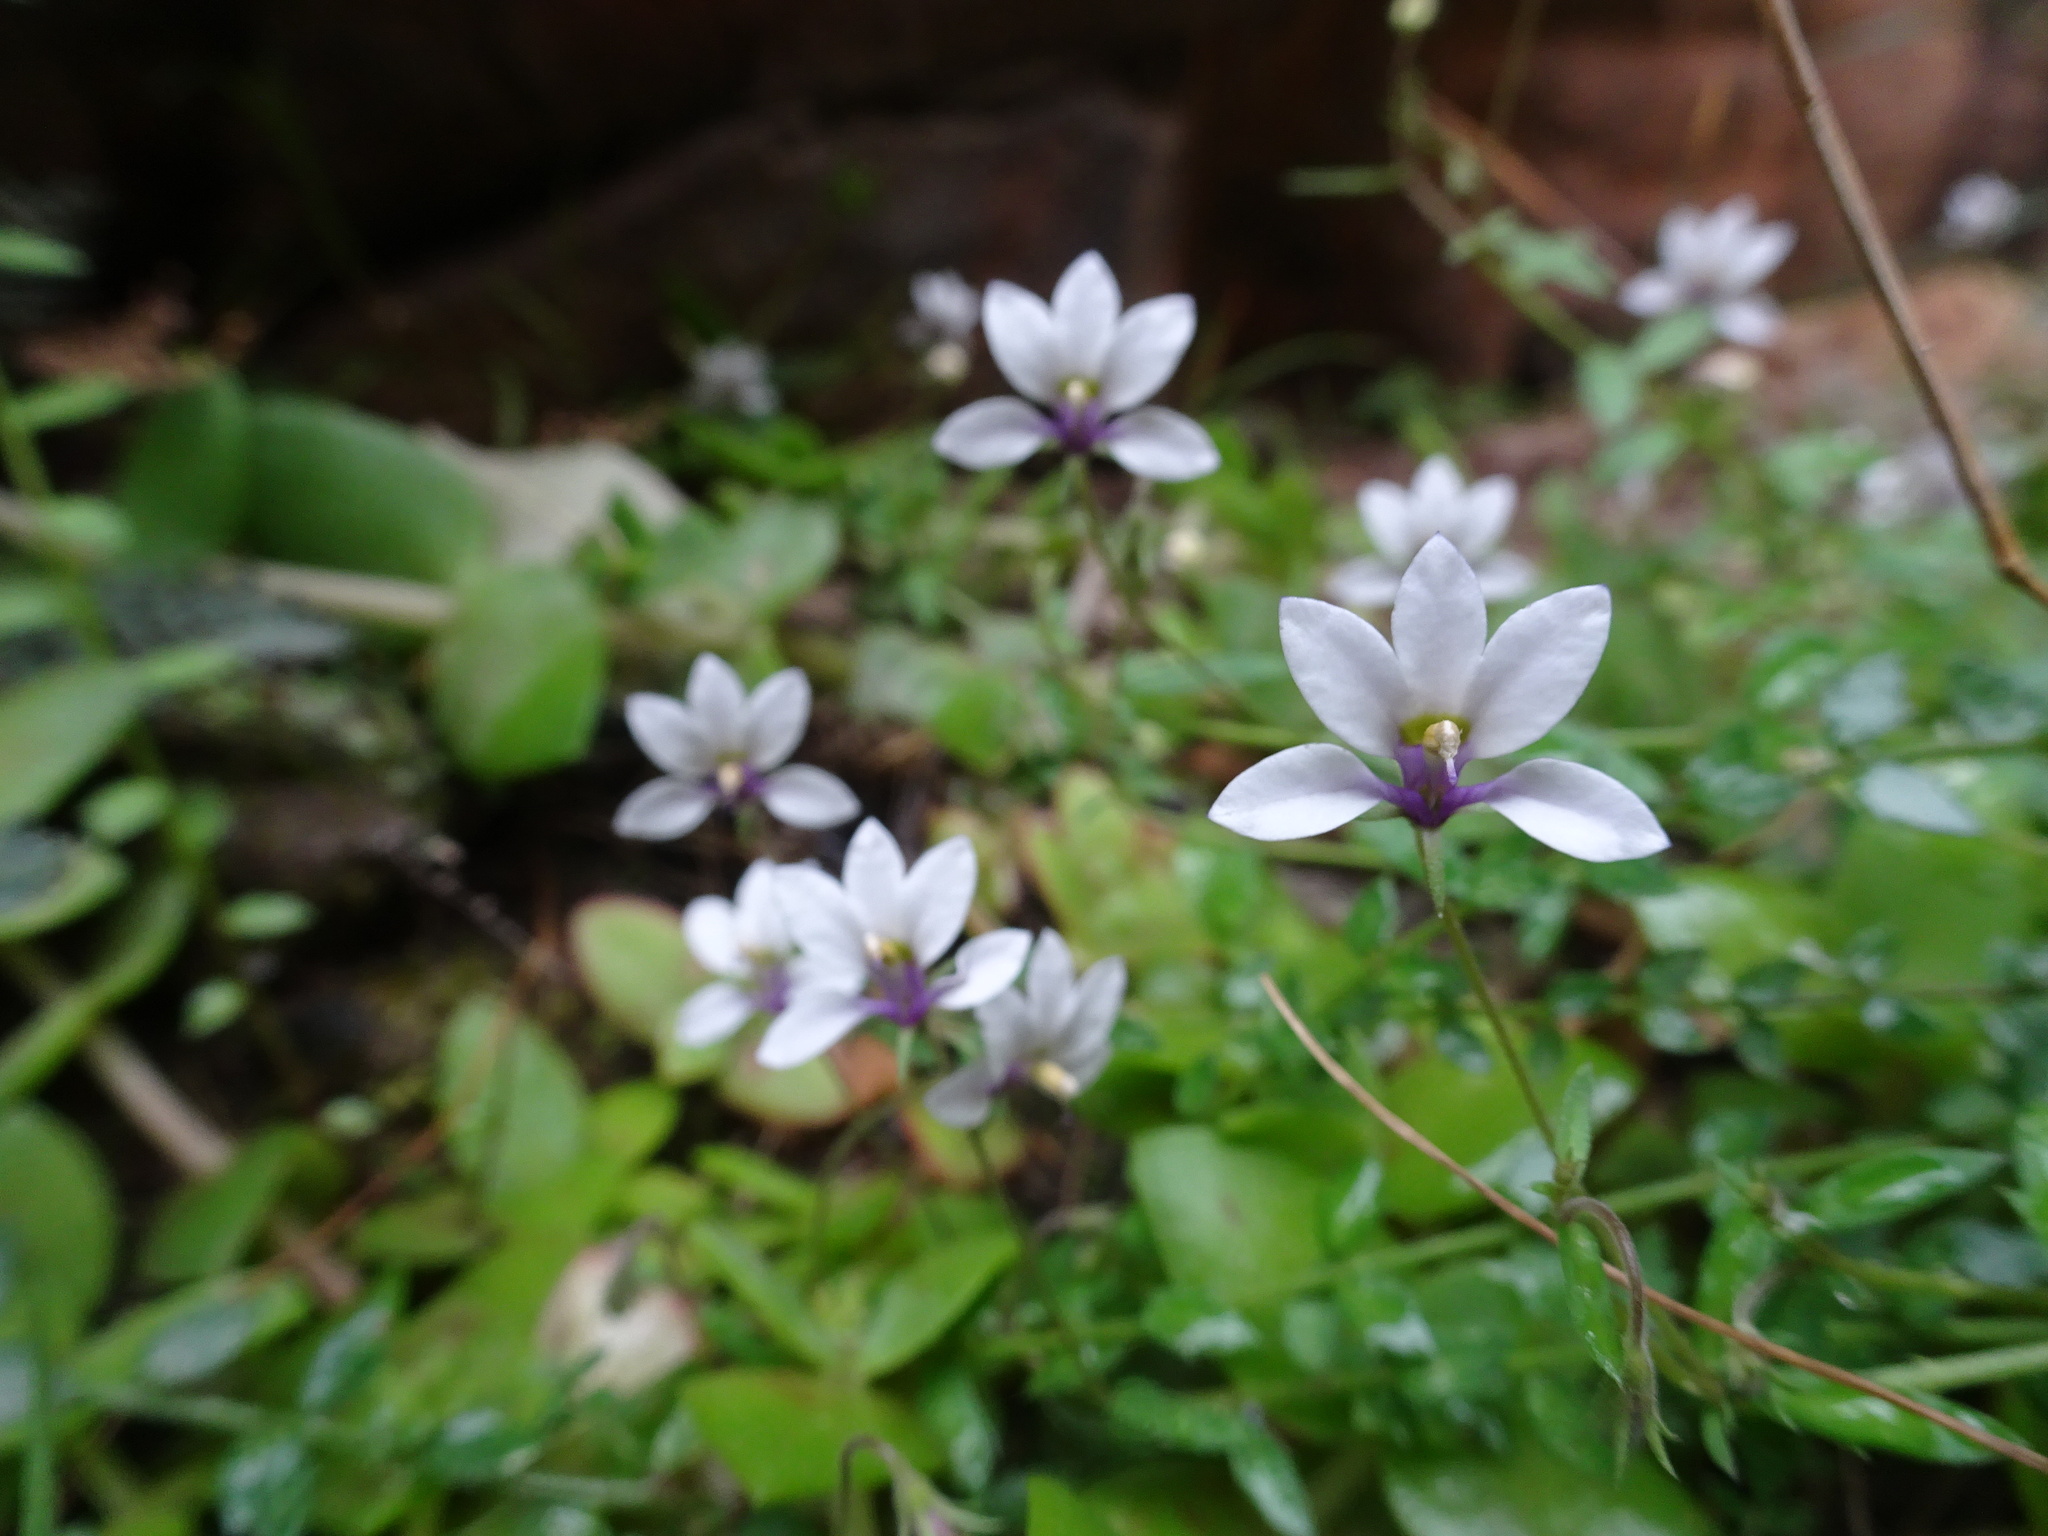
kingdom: Plantae
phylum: Tracheophyta
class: Magnoliopsida
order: Asterales
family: Campanulaceae
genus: Monopsis
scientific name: Monopsis alba
